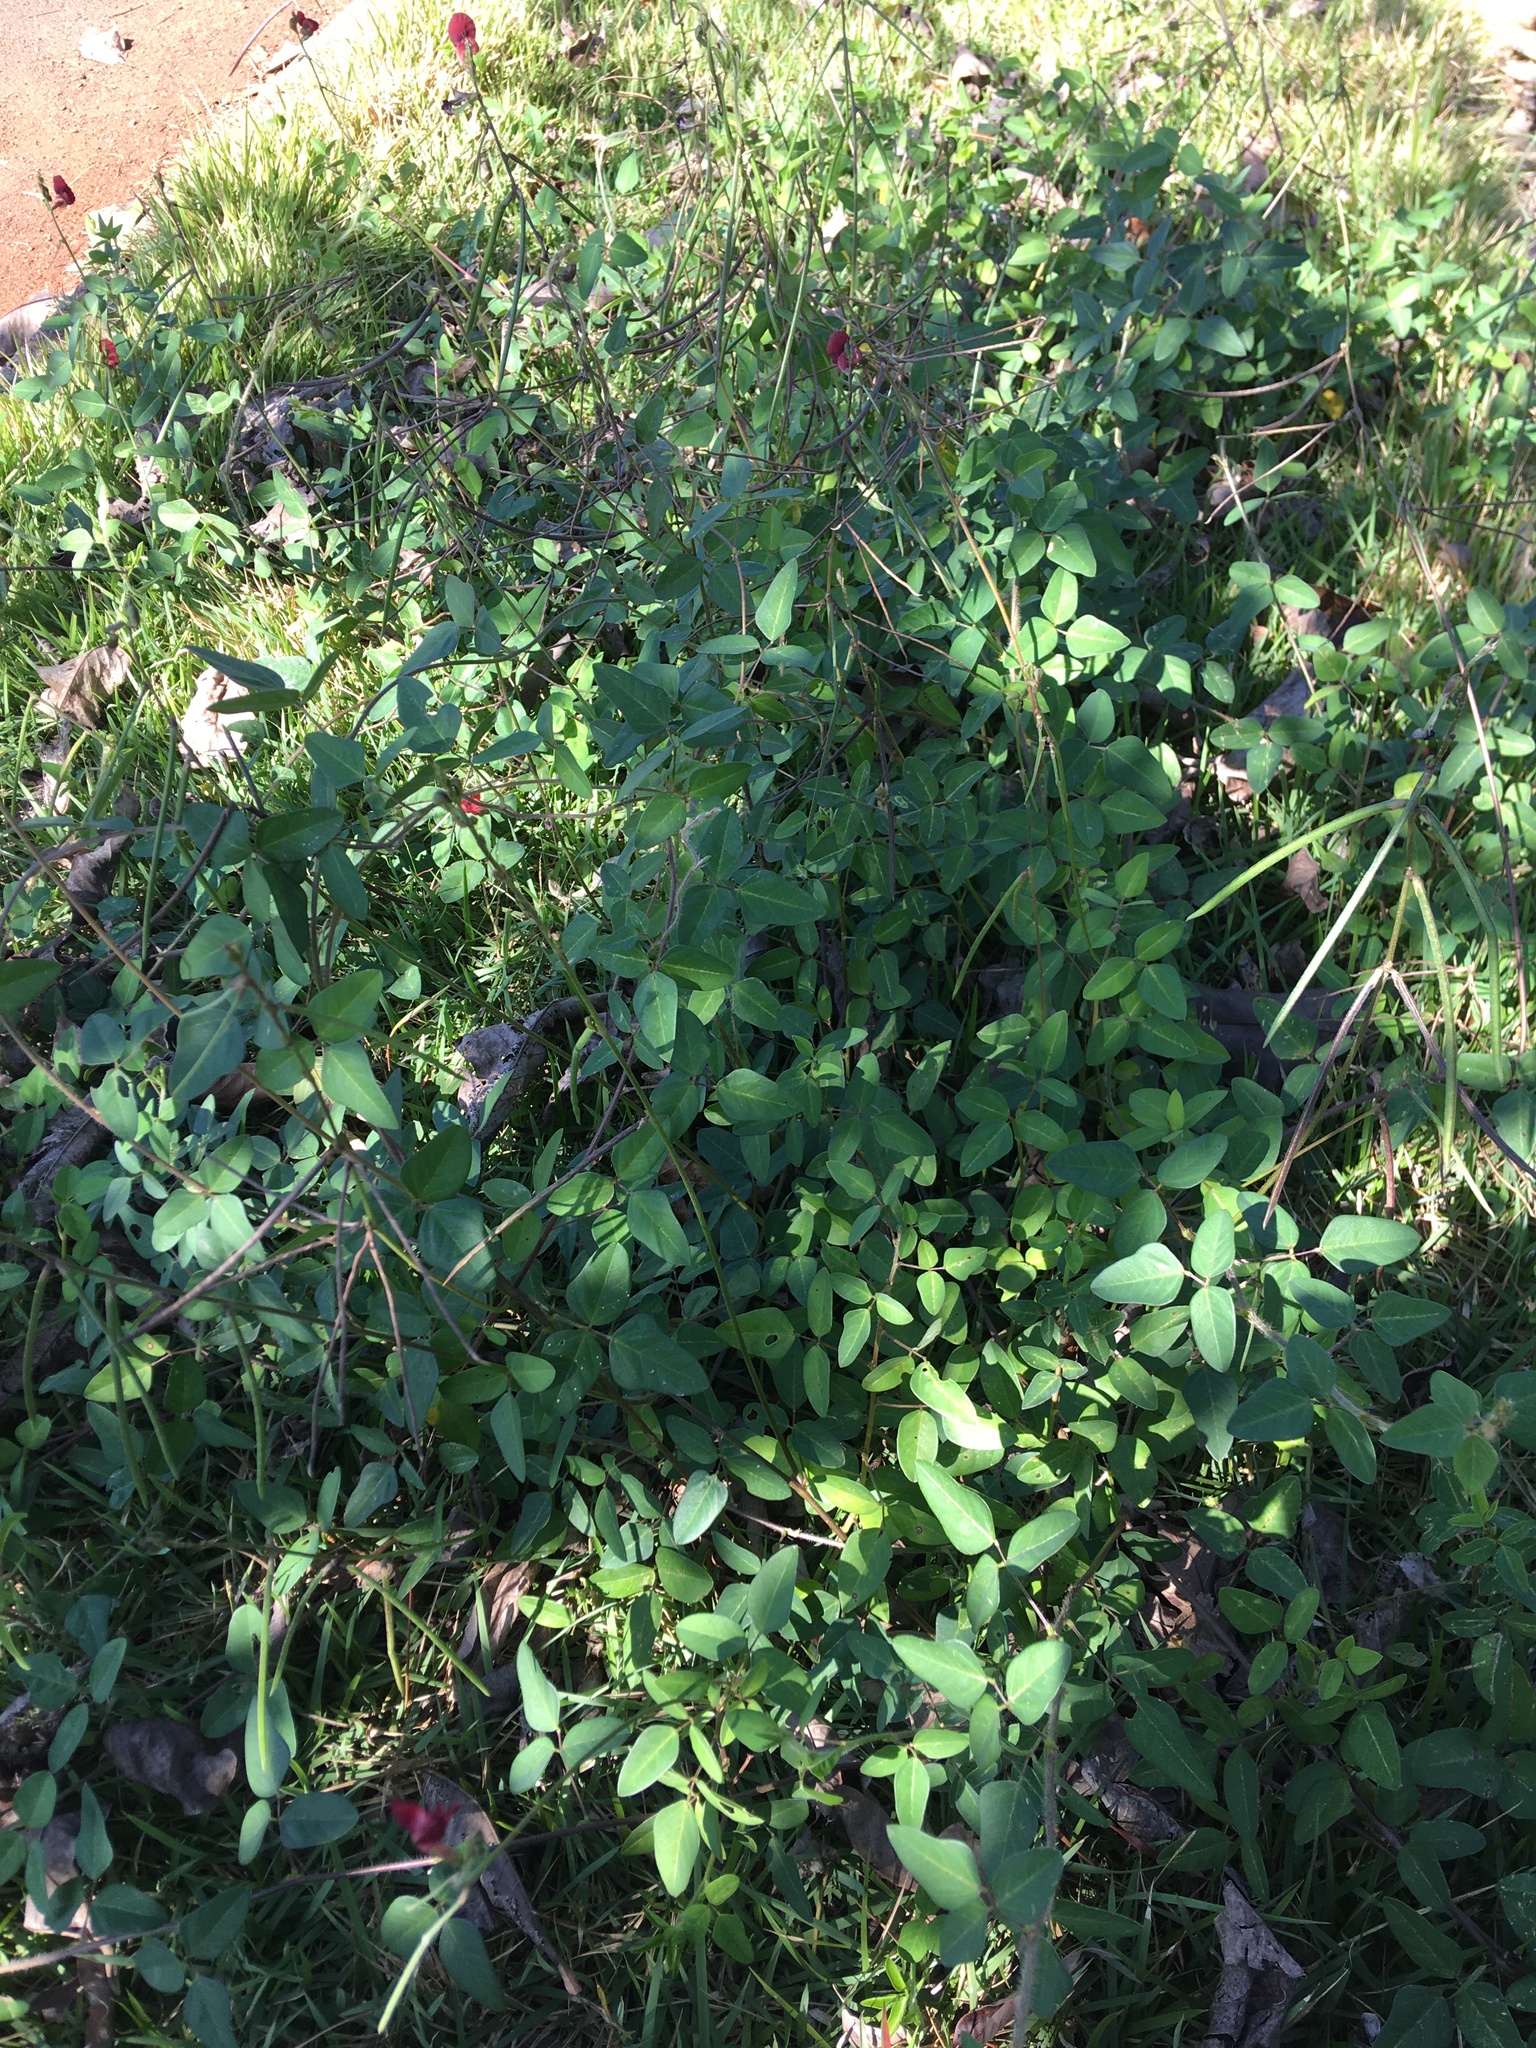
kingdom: Plantae
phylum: Tracheophyta
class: Magnoliopsida
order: Fabales
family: Fabaceae
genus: Macroptilium
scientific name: Macroptilium lathyroides
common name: Wild bushbean
